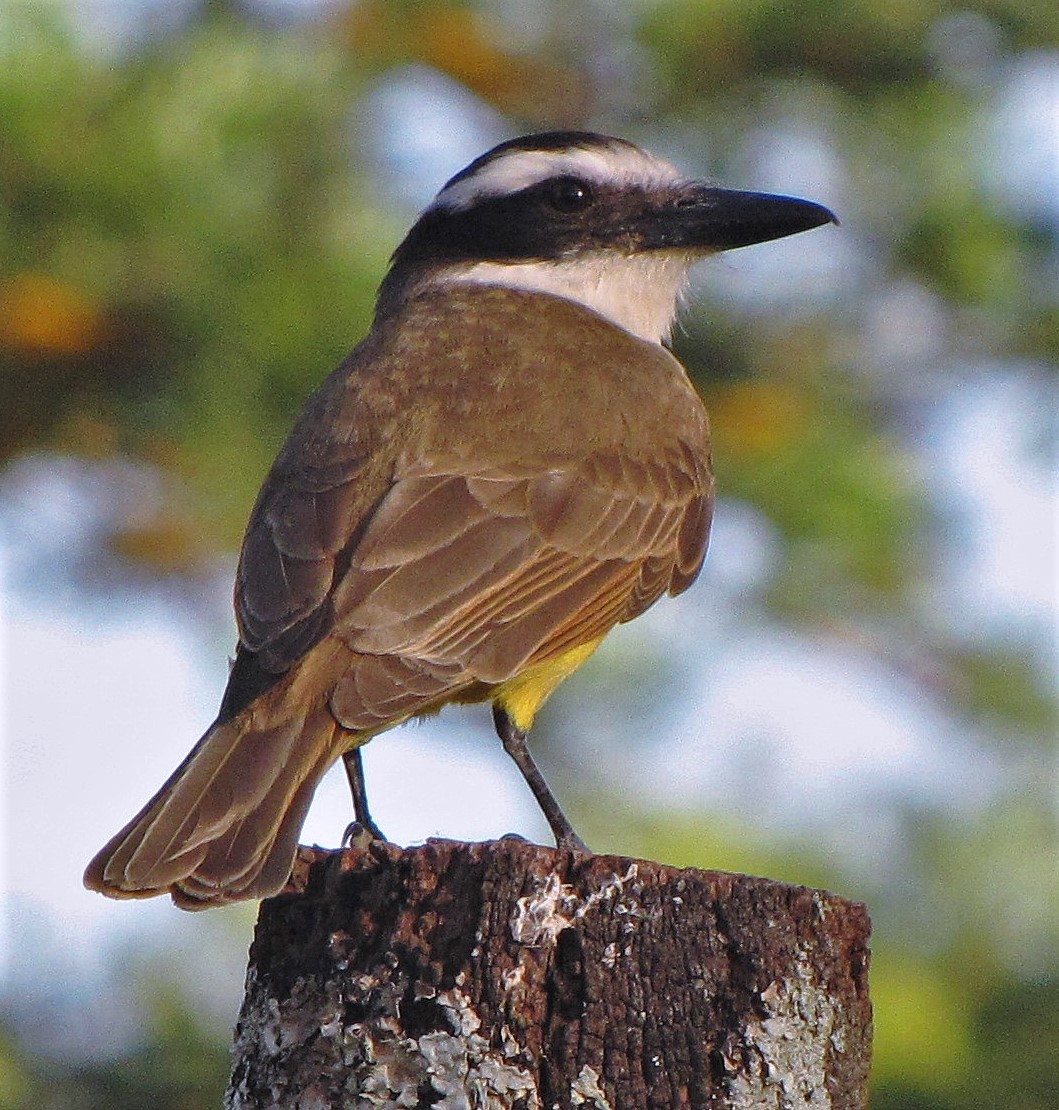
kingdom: Animalia
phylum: Chordata
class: Aves
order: Passeriformes
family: Tyrannidae
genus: Pitangus
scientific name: Pitangus sulphuratus
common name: Great kiskadee
